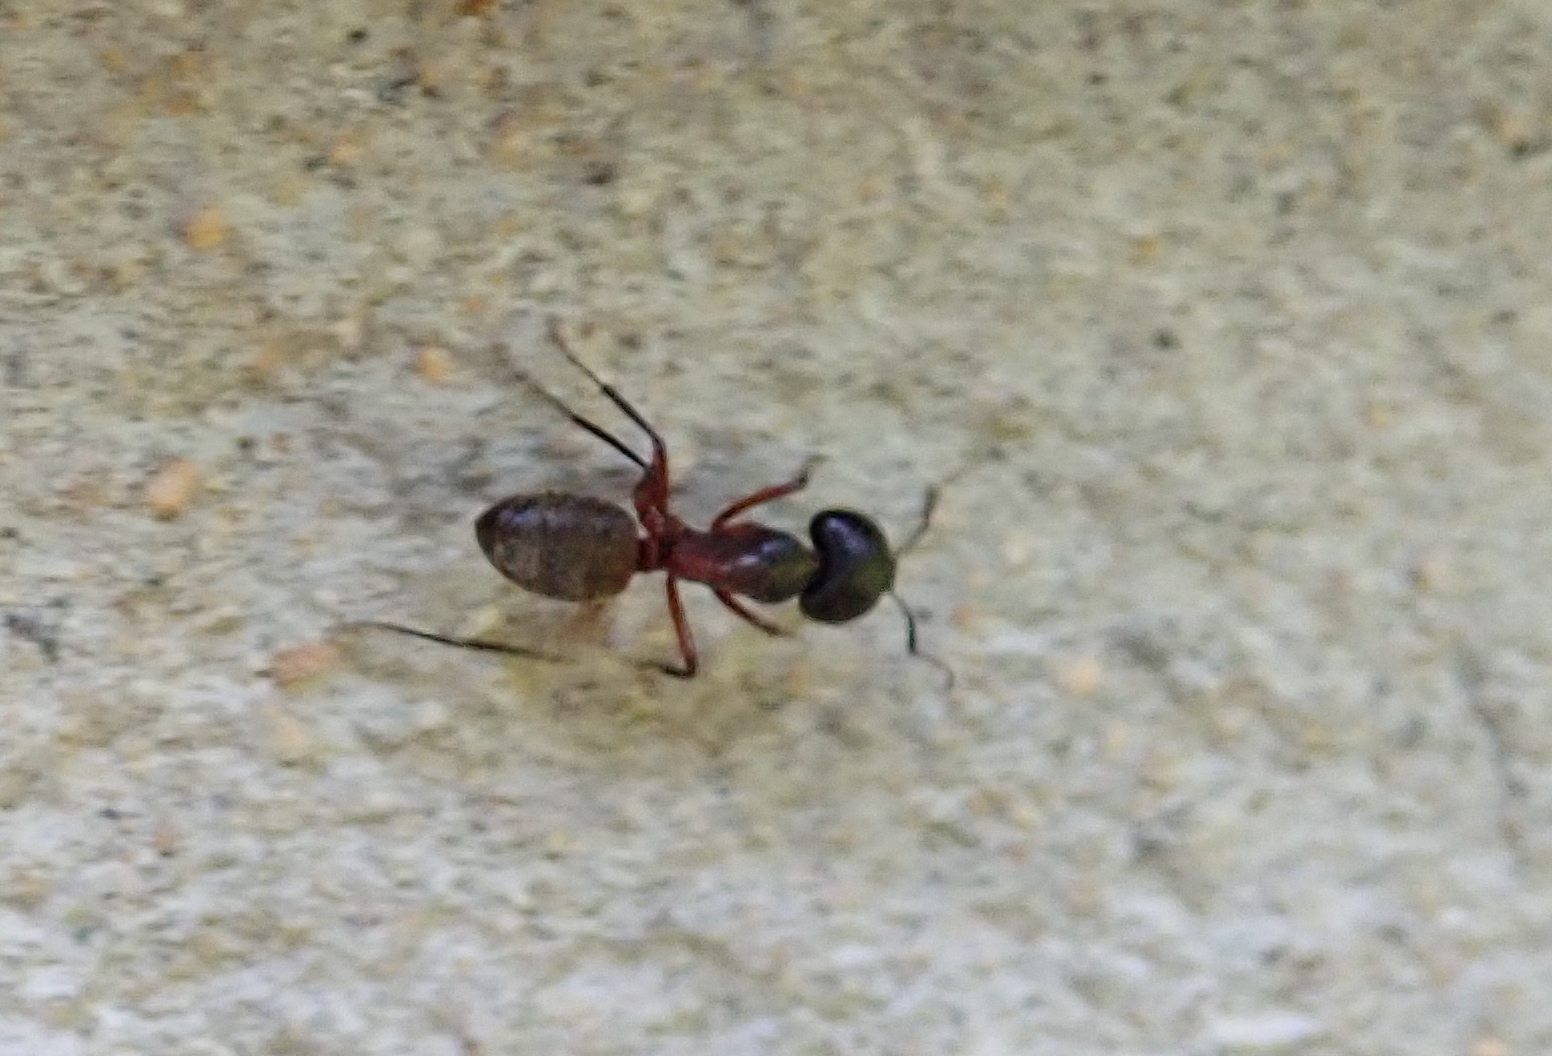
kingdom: Animalia
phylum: Arthropoda
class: Insecta
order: Hymenoptera
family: Formicidae
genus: Camponotus
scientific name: Camponotus chromaiodes
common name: Red carpenter ant
